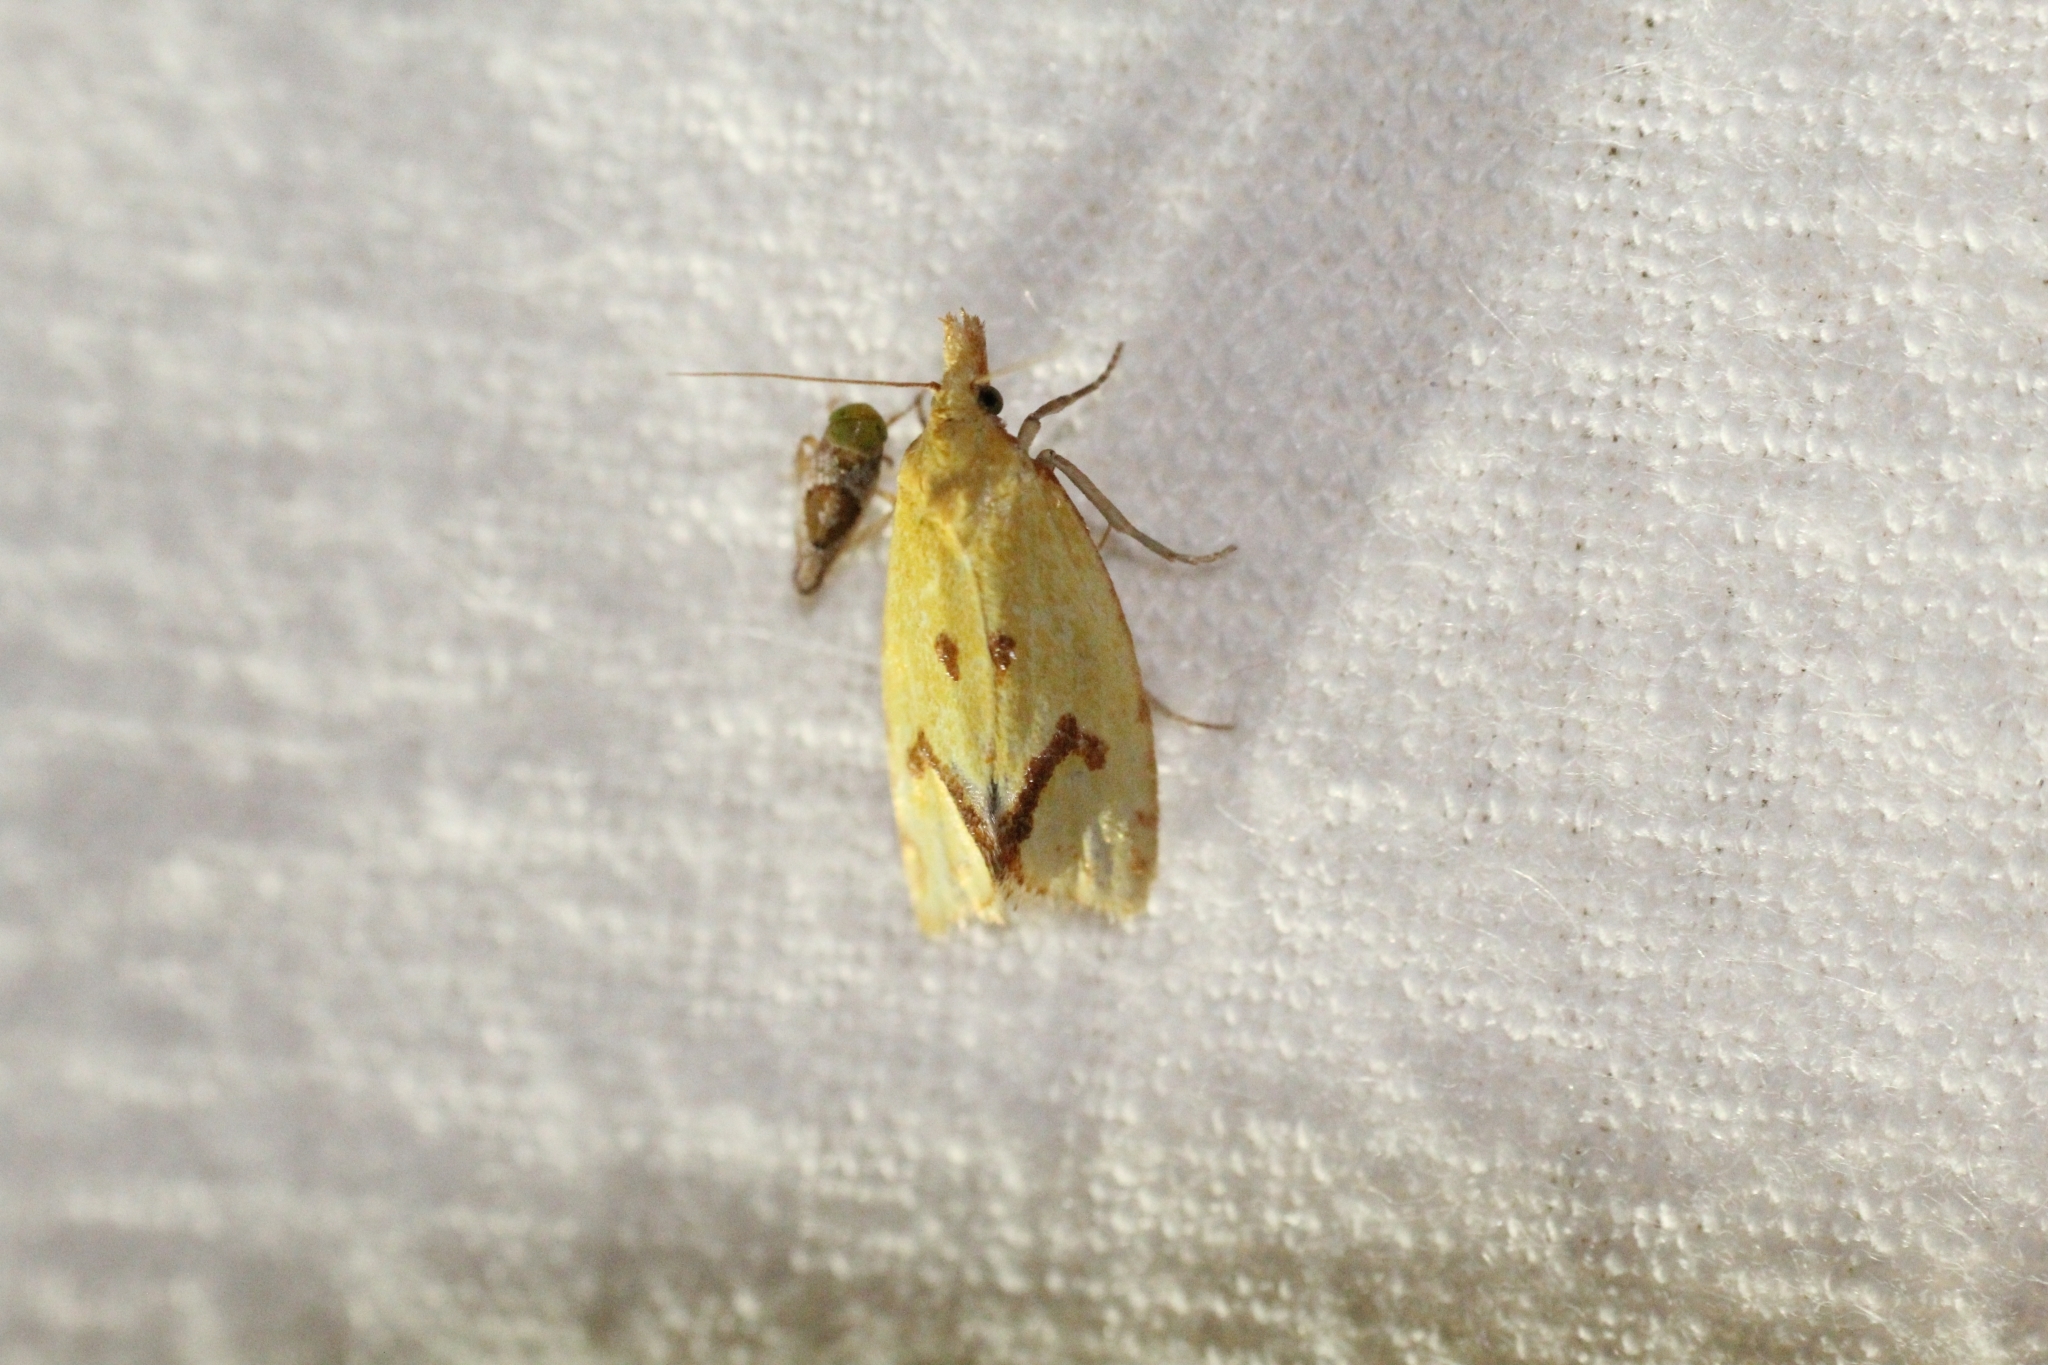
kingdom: Animalia
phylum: Arthropoda
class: Insecta
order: Lepidoptera
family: Tortricidae
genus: Agapeta
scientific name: Agapeta hamana
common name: Common yellow conch
